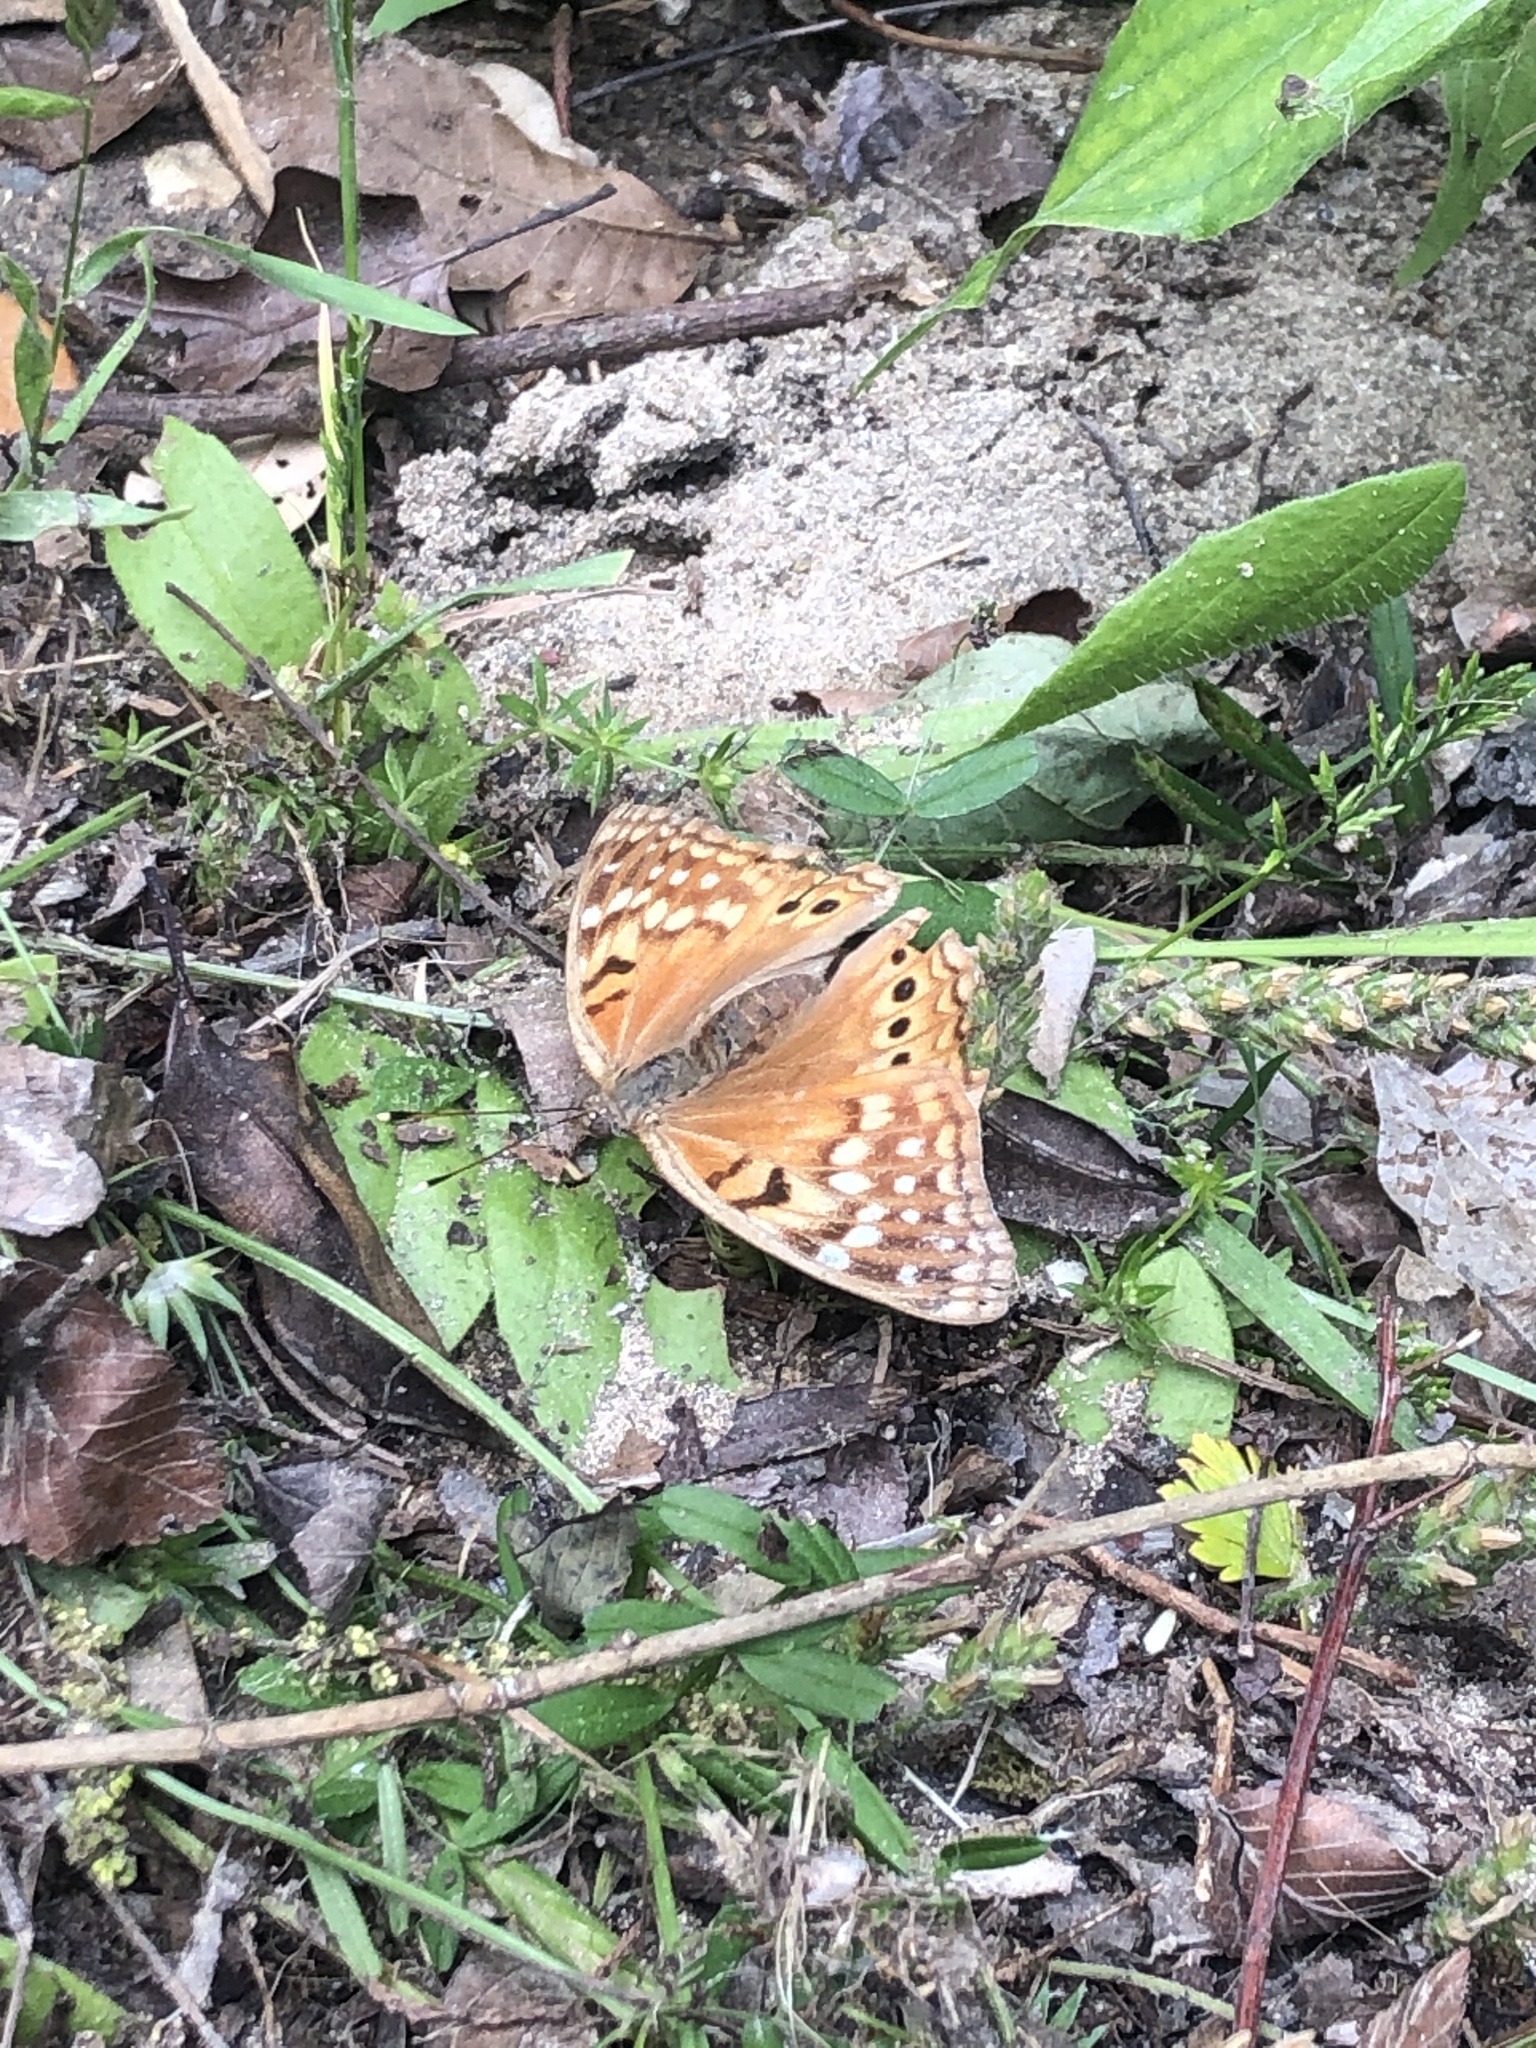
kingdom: Animalia
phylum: Arthropoda
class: Insecta
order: Lepidoptera
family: Nymphalidae
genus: Asterocampa
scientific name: Asterocampa clyton
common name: Tawny emperor
